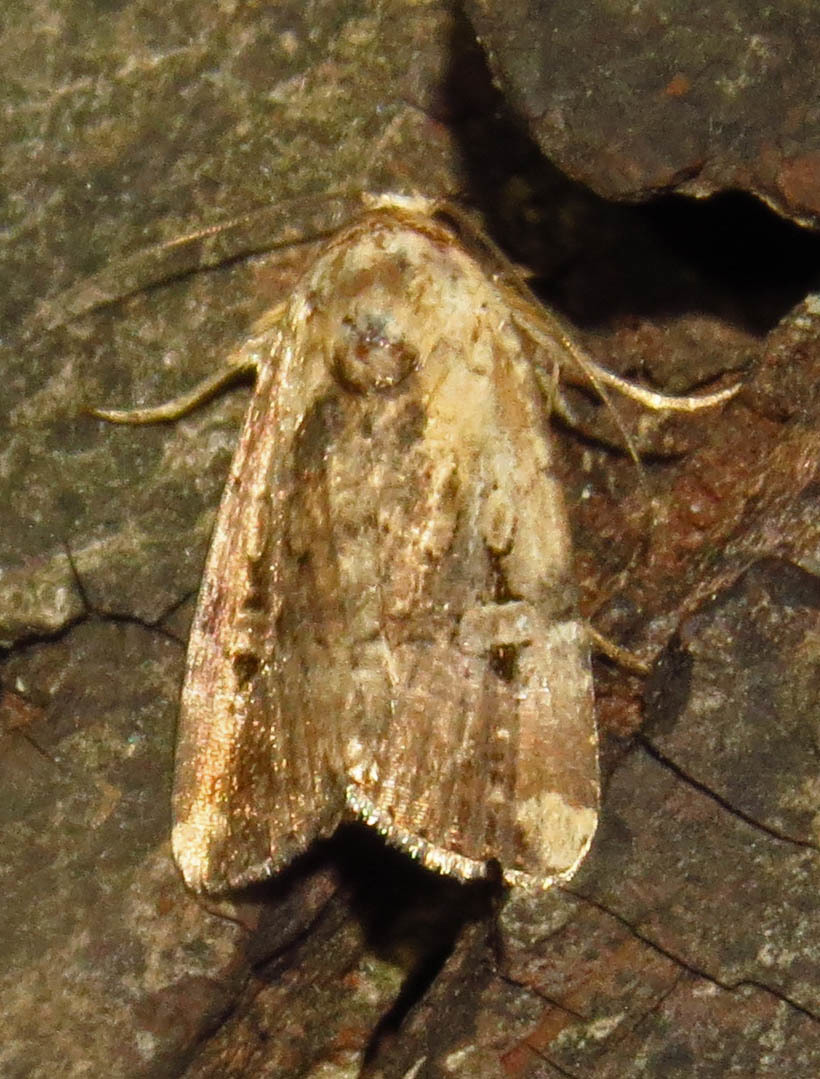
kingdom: Animalia
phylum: Arthropoda
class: Insecta
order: Lepidoptera
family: Noctuidae
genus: Elaphria
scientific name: Elaphria chalcedonia
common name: Chalcedony midget
